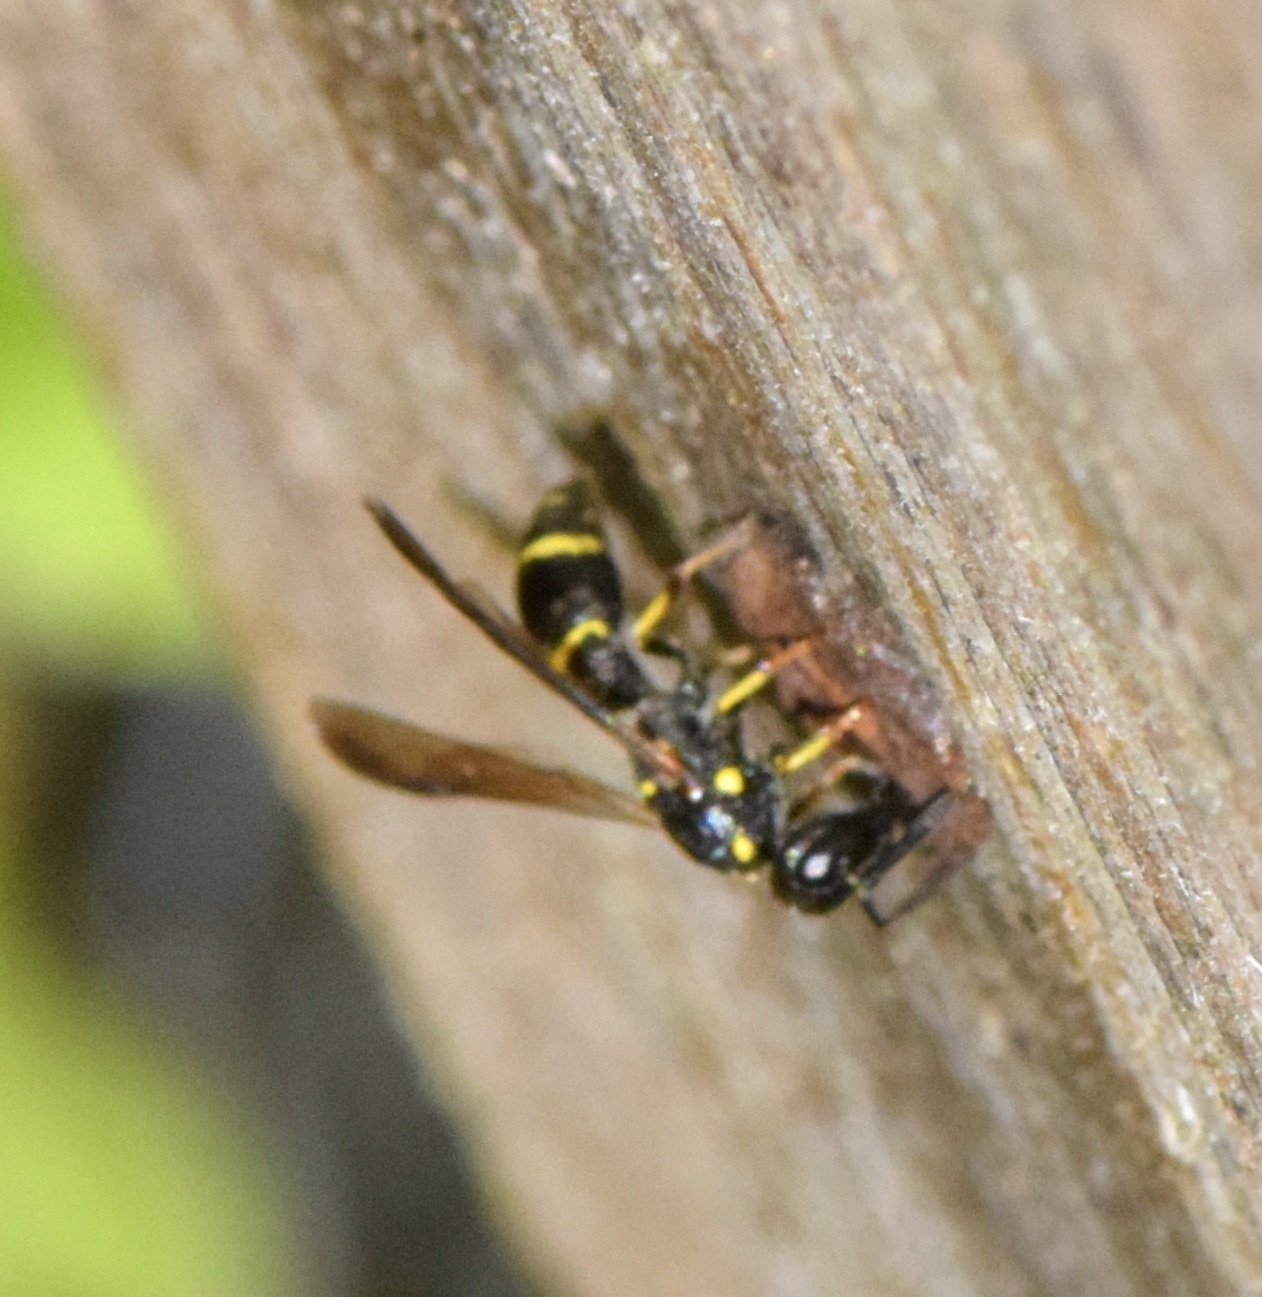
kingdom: Animalia
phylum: Arthropoda
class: Insecta
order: Hymenoptera
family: Eumenidae
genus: Symmorphus
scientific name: Symmorphus
